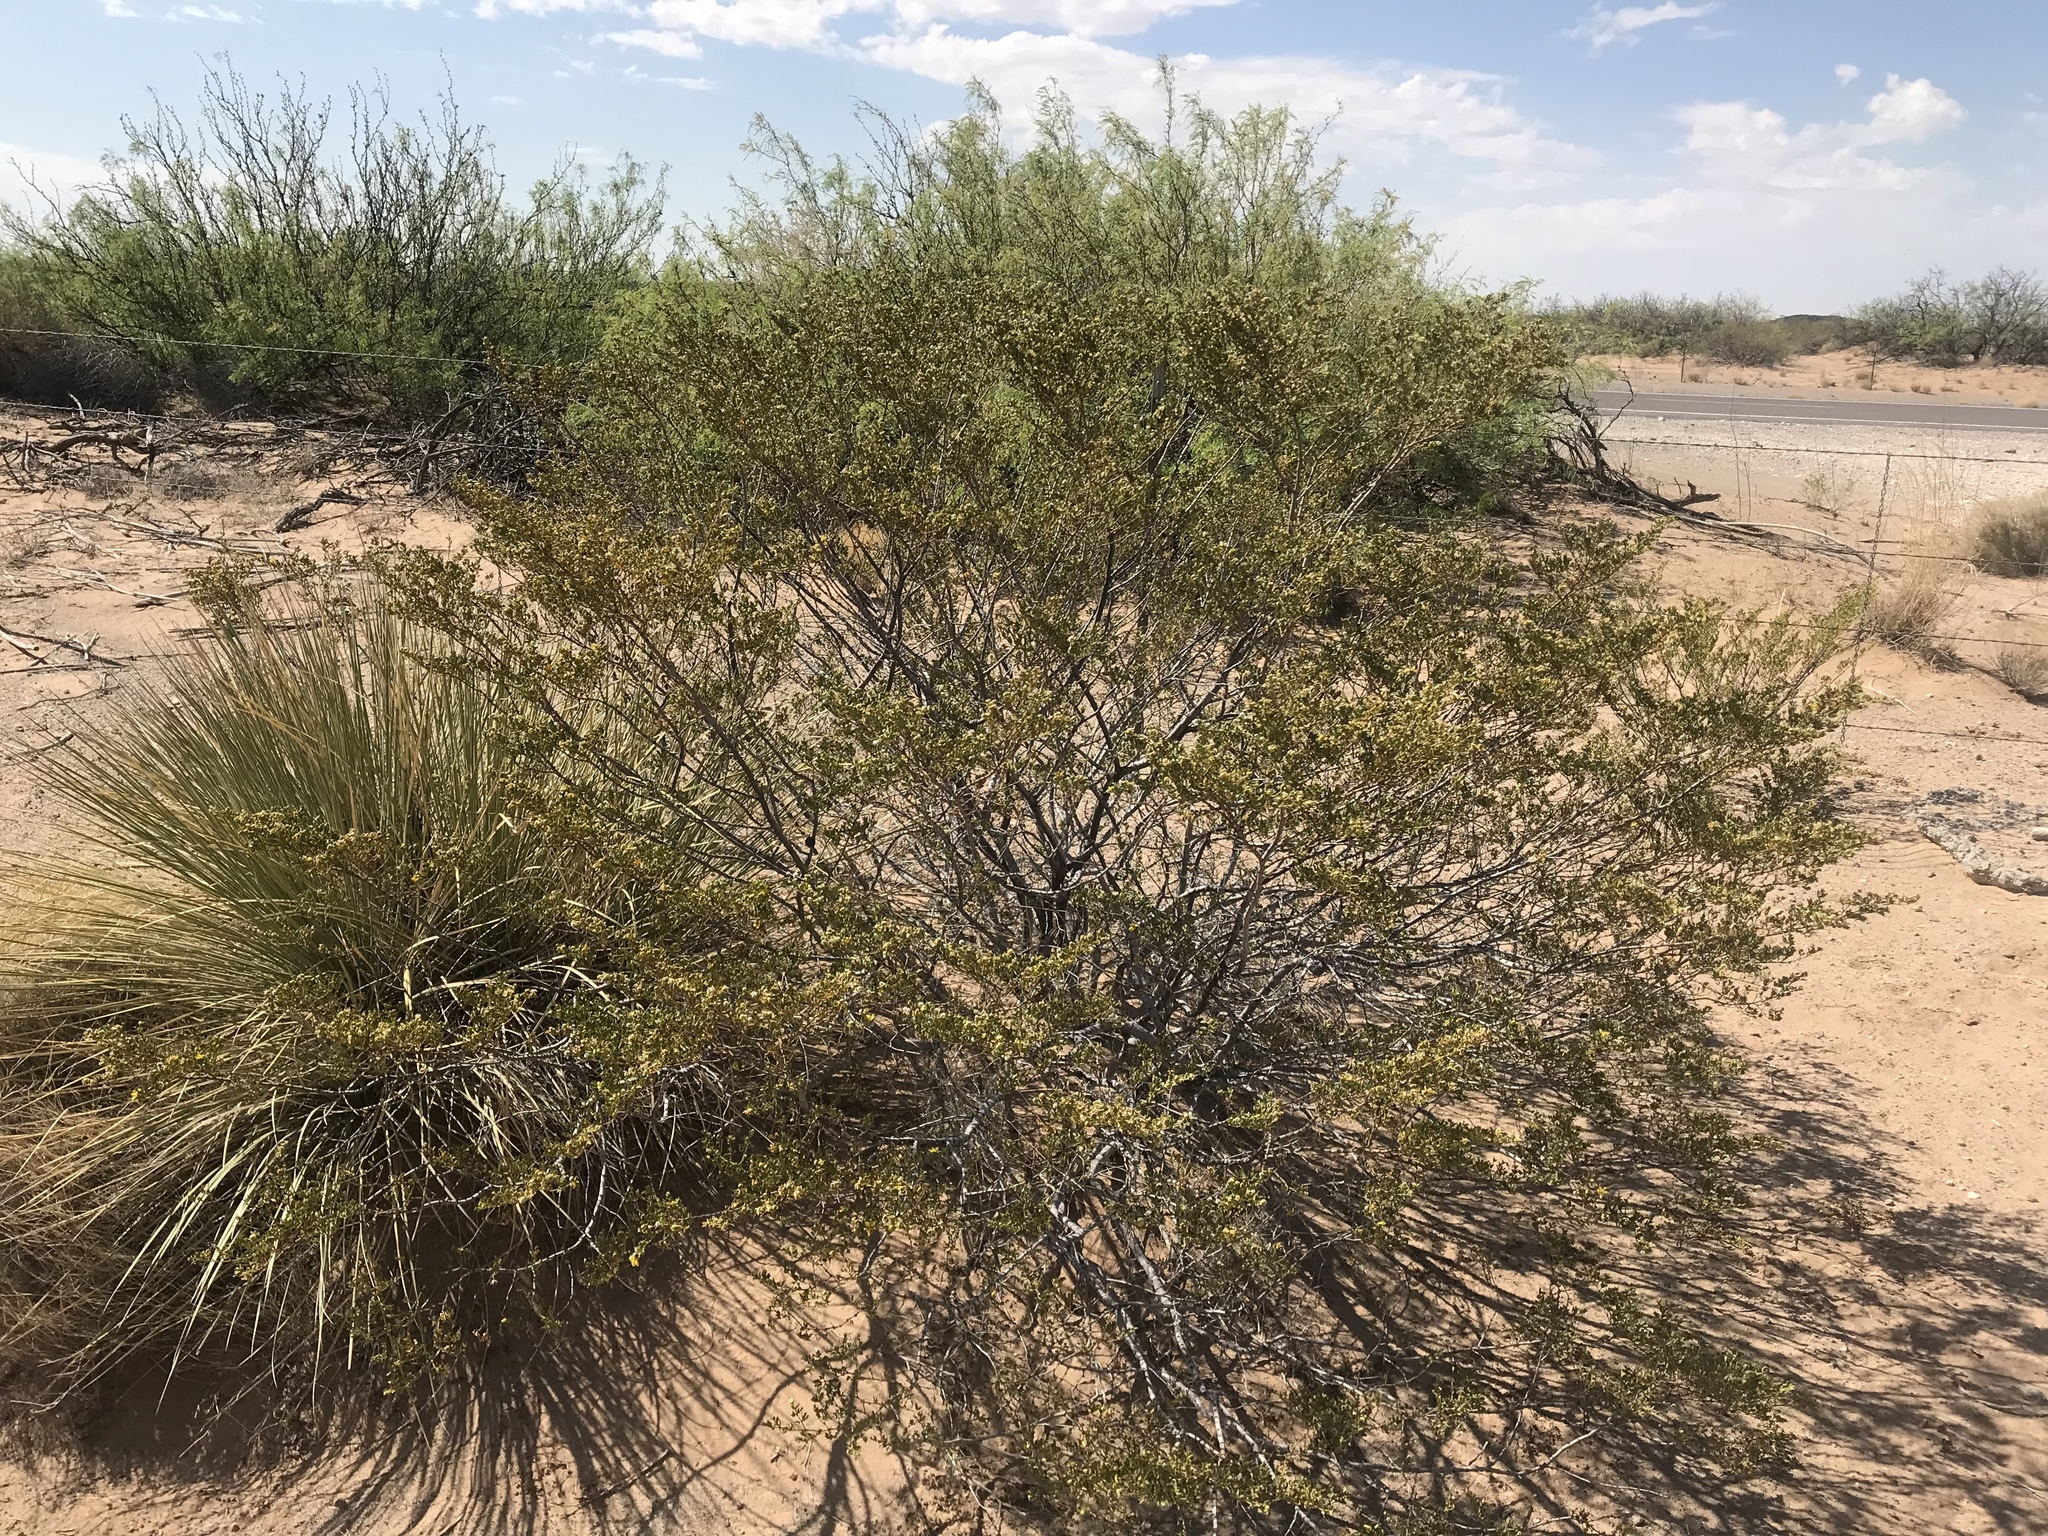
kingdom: Plantae
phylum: Tracheophyta
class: Magnoliopsida
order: Zygophyllales
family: Zygophyllaceae
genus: Larrea
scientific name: Larrea tridentata
